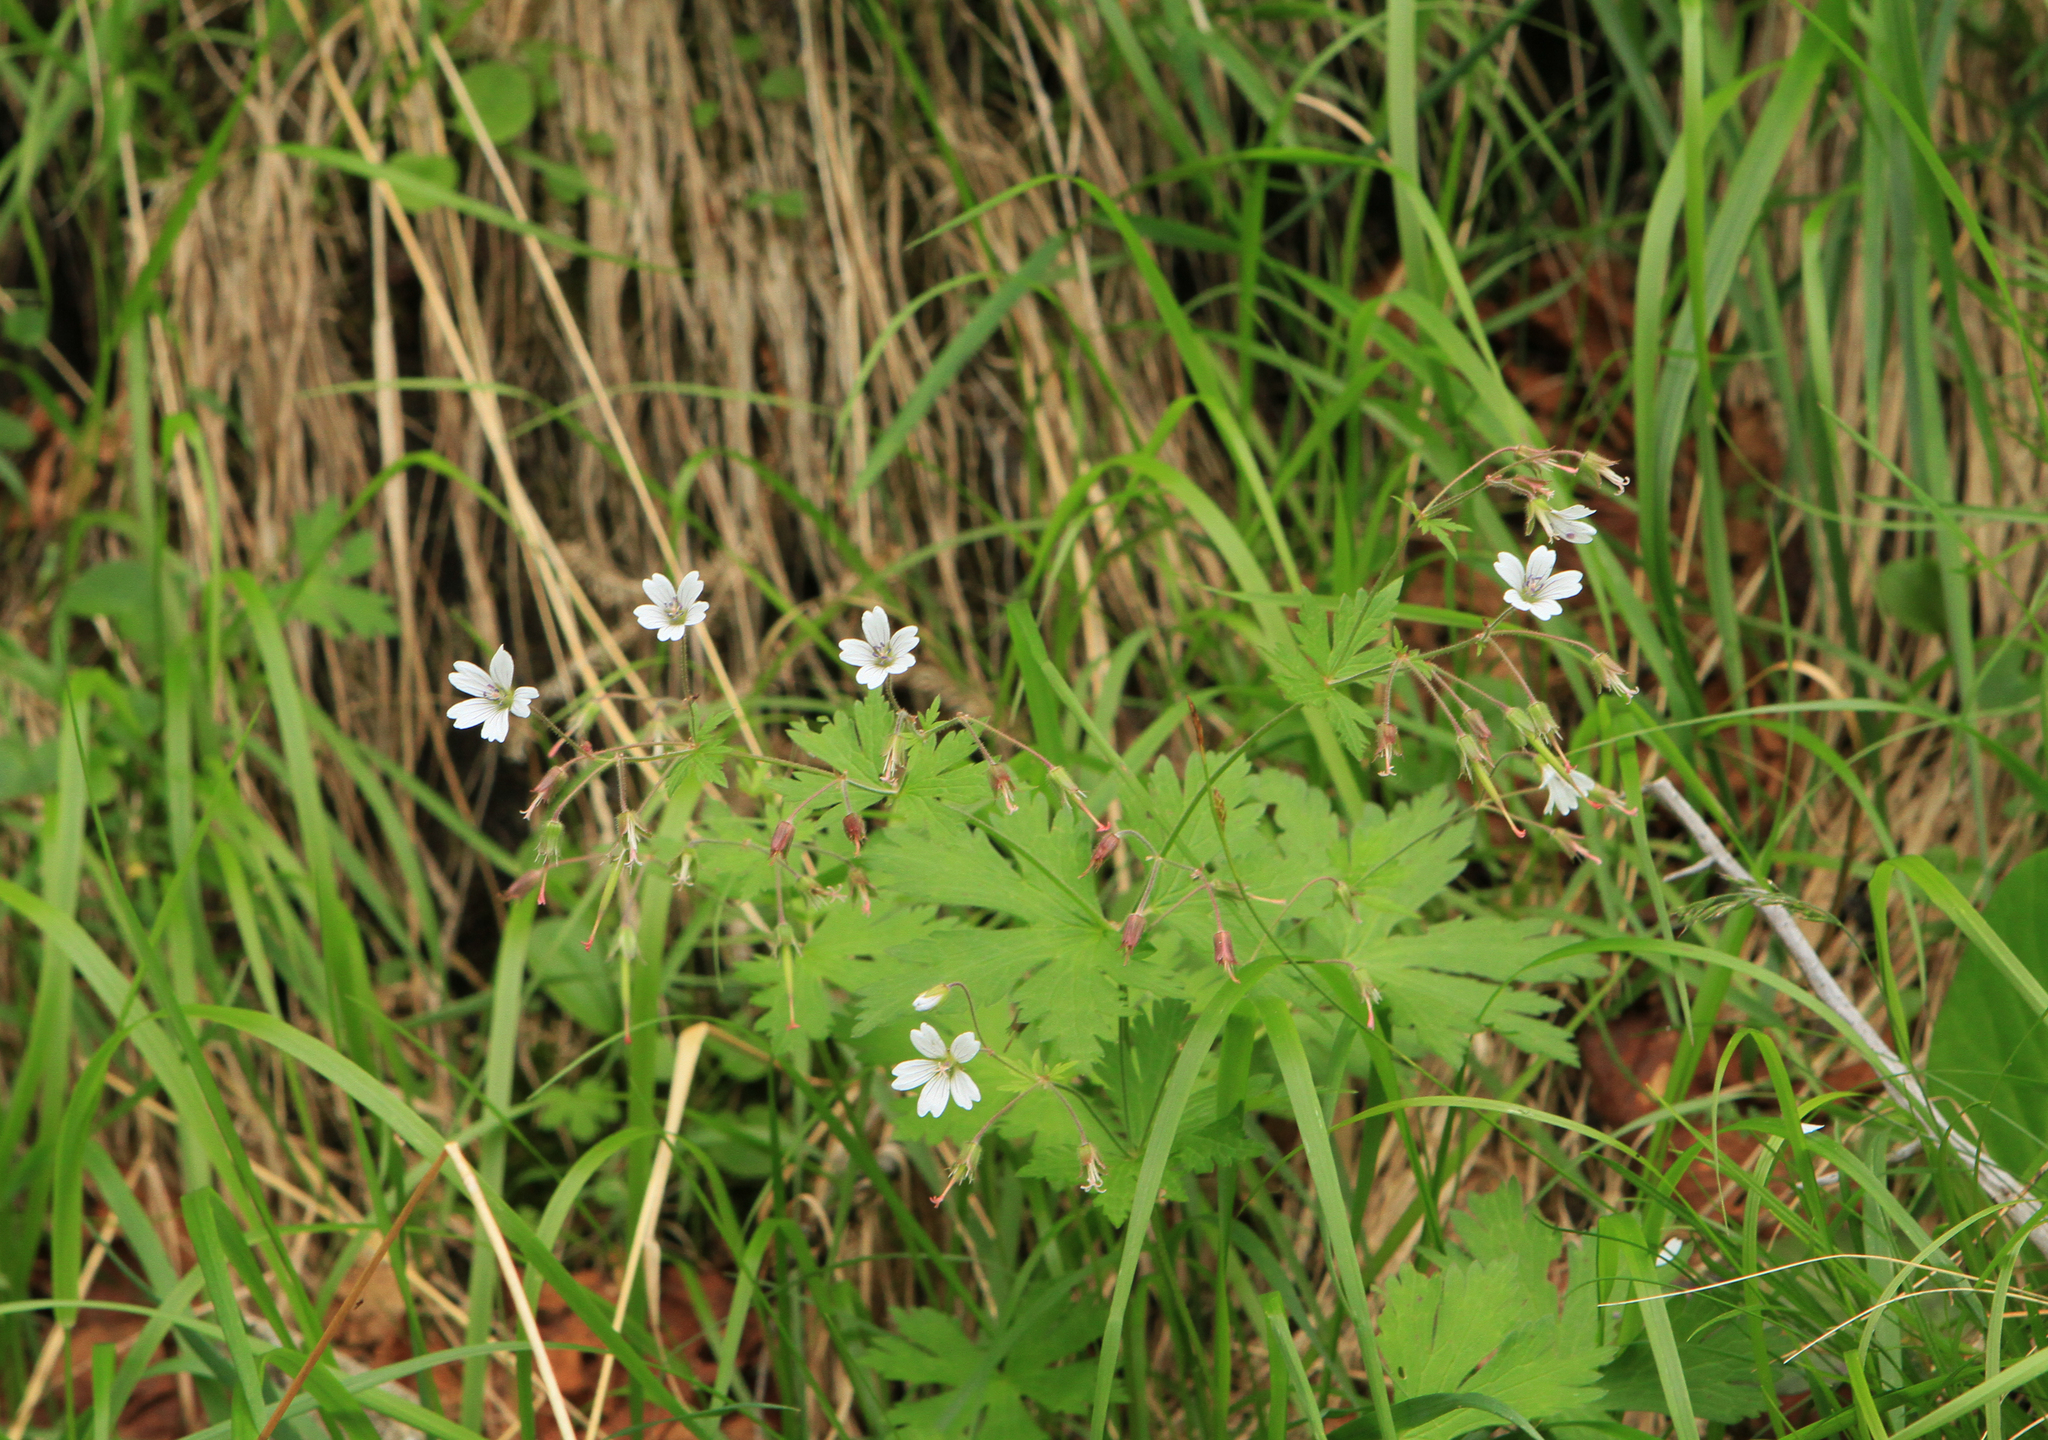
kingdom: Plantae
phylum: Tracheophyta
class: Magnoliopsida
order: Geraniales
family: Geraniaceae
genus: Geranium
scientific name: Geranium sylvaticum
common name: Wood crane's-bill
